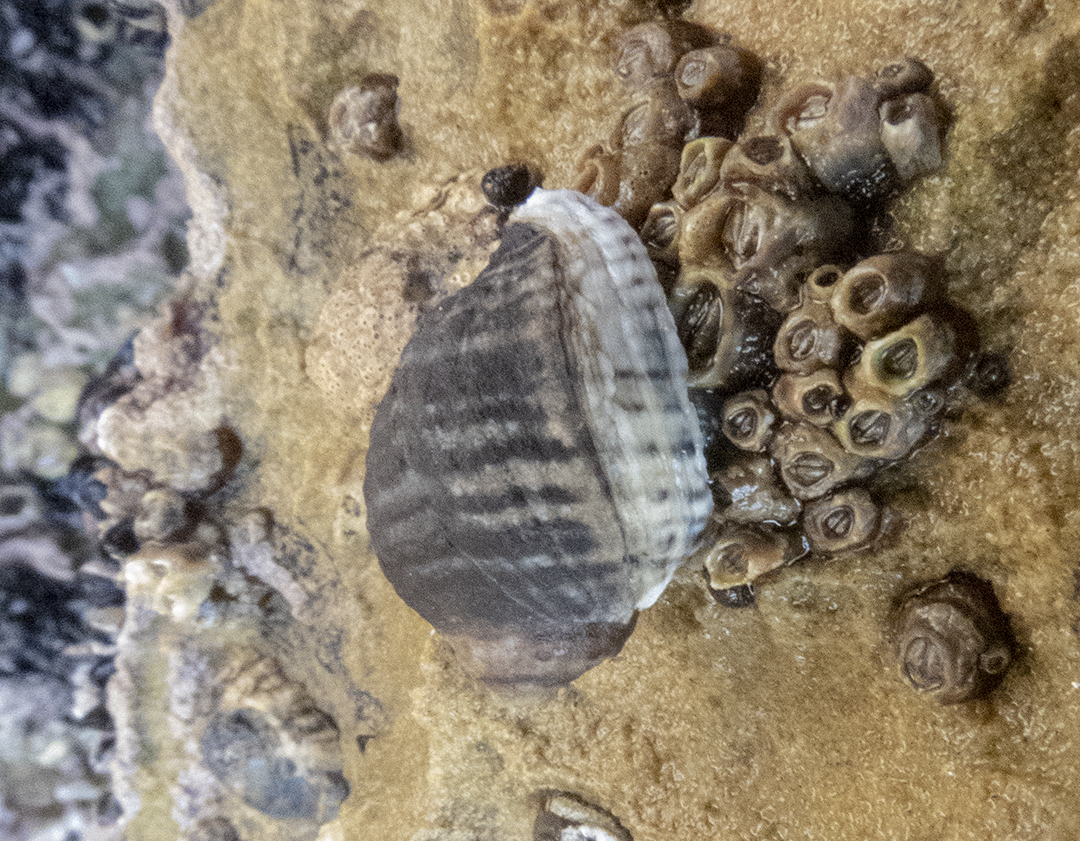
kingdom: Animalia
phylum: Mollusca
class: Gastropoda
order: Neogastropoda
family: Muricidae
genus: Haustrum
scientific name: Haustrum albomarginatum
